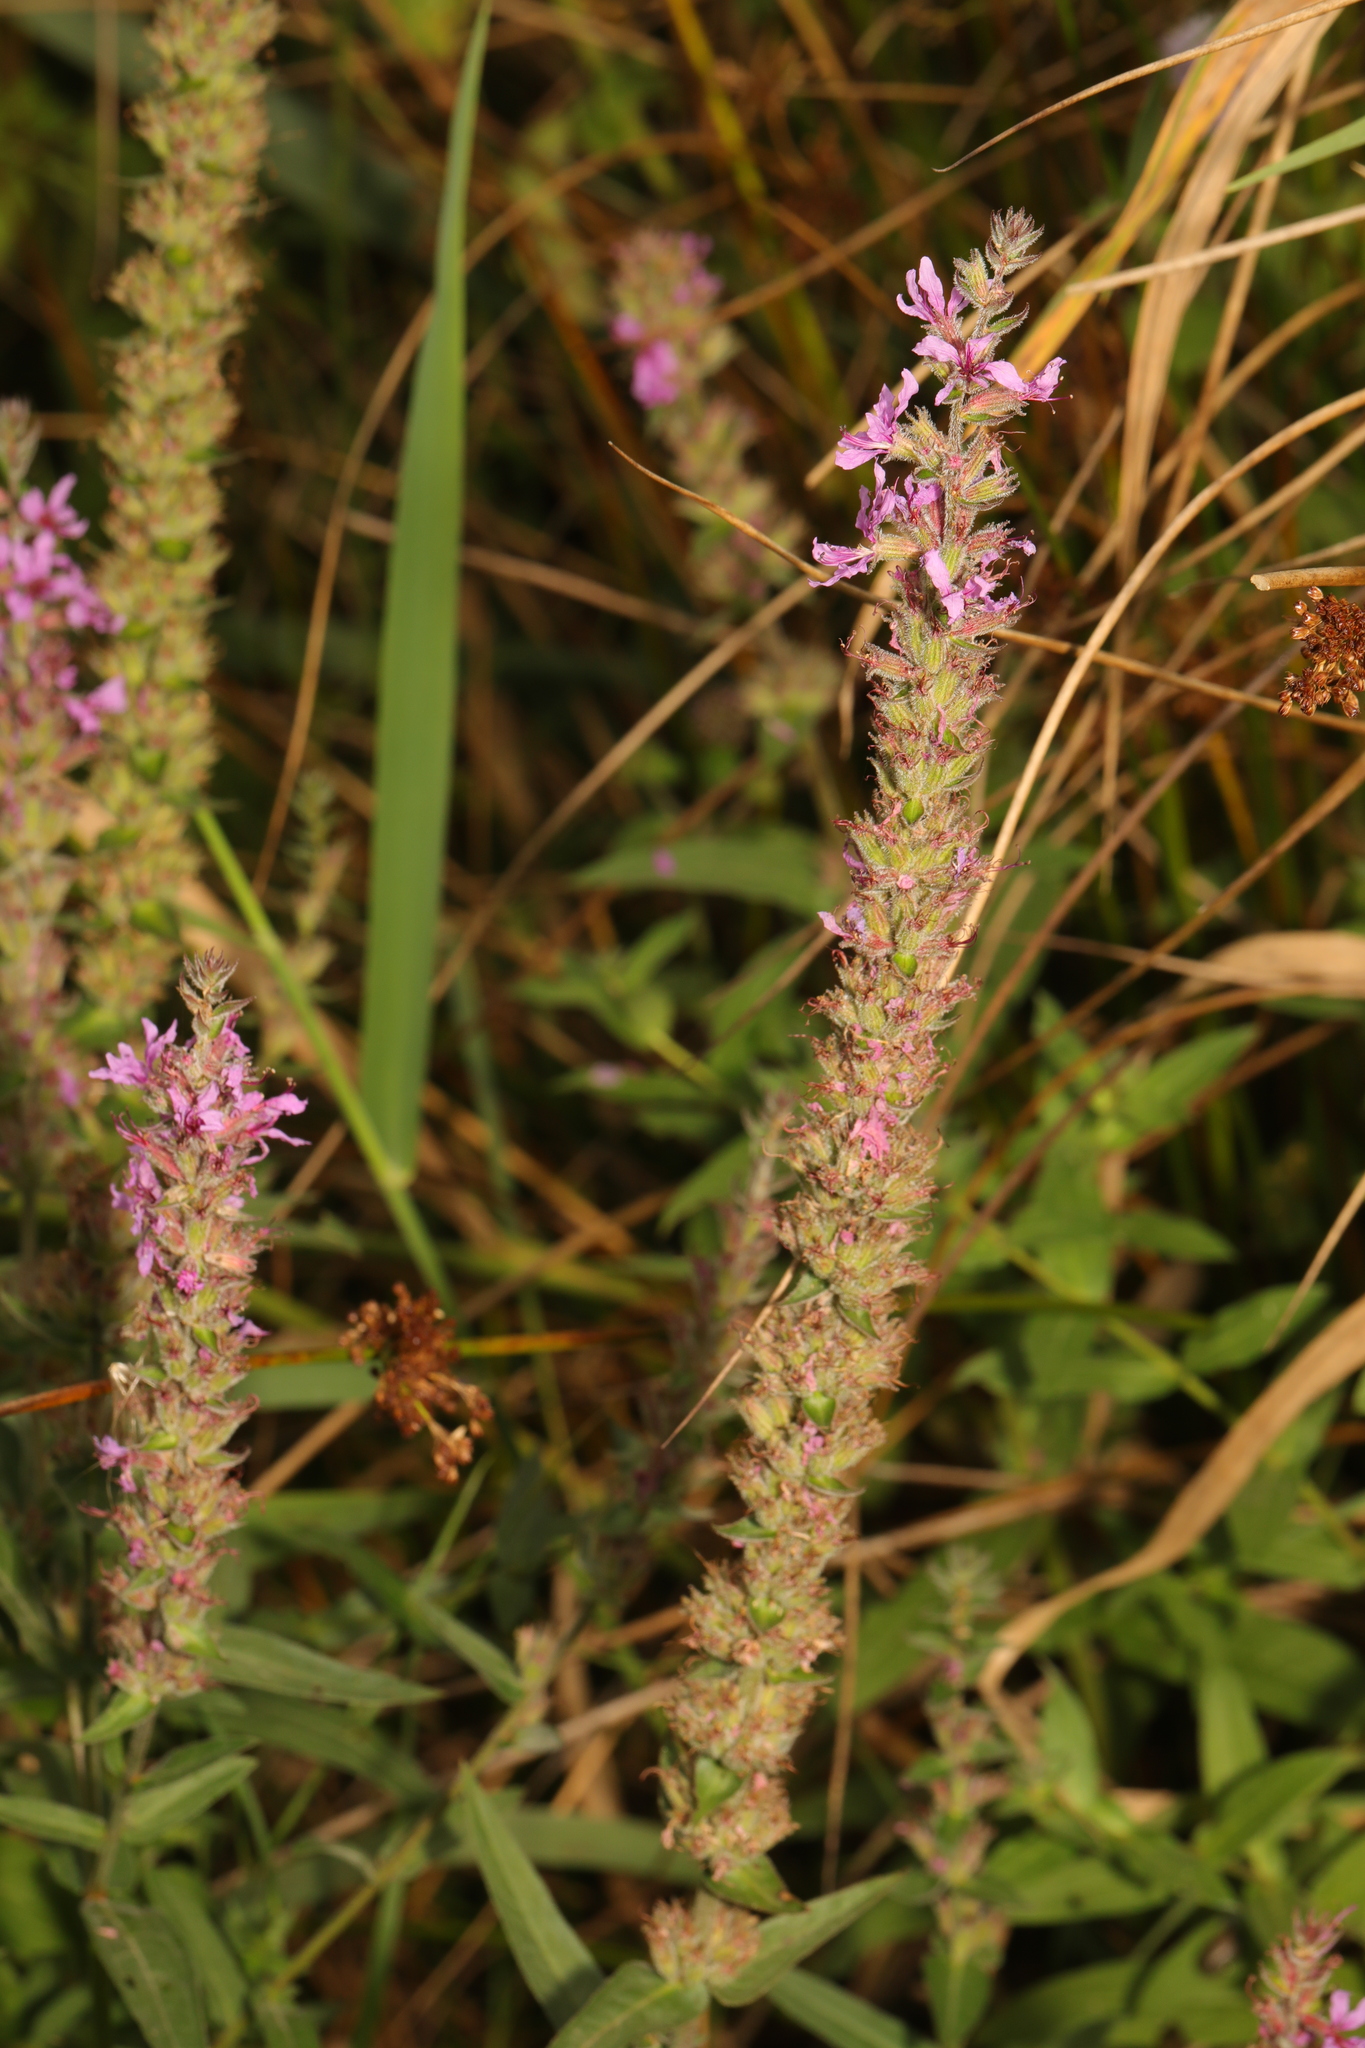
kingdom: Plantae
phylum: Tracheophyta
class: Magnoliopsida
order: Myrtales
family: Lythraceae
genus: Lythrum
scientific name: Lythrum salicaria
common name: Purple loosestrife
